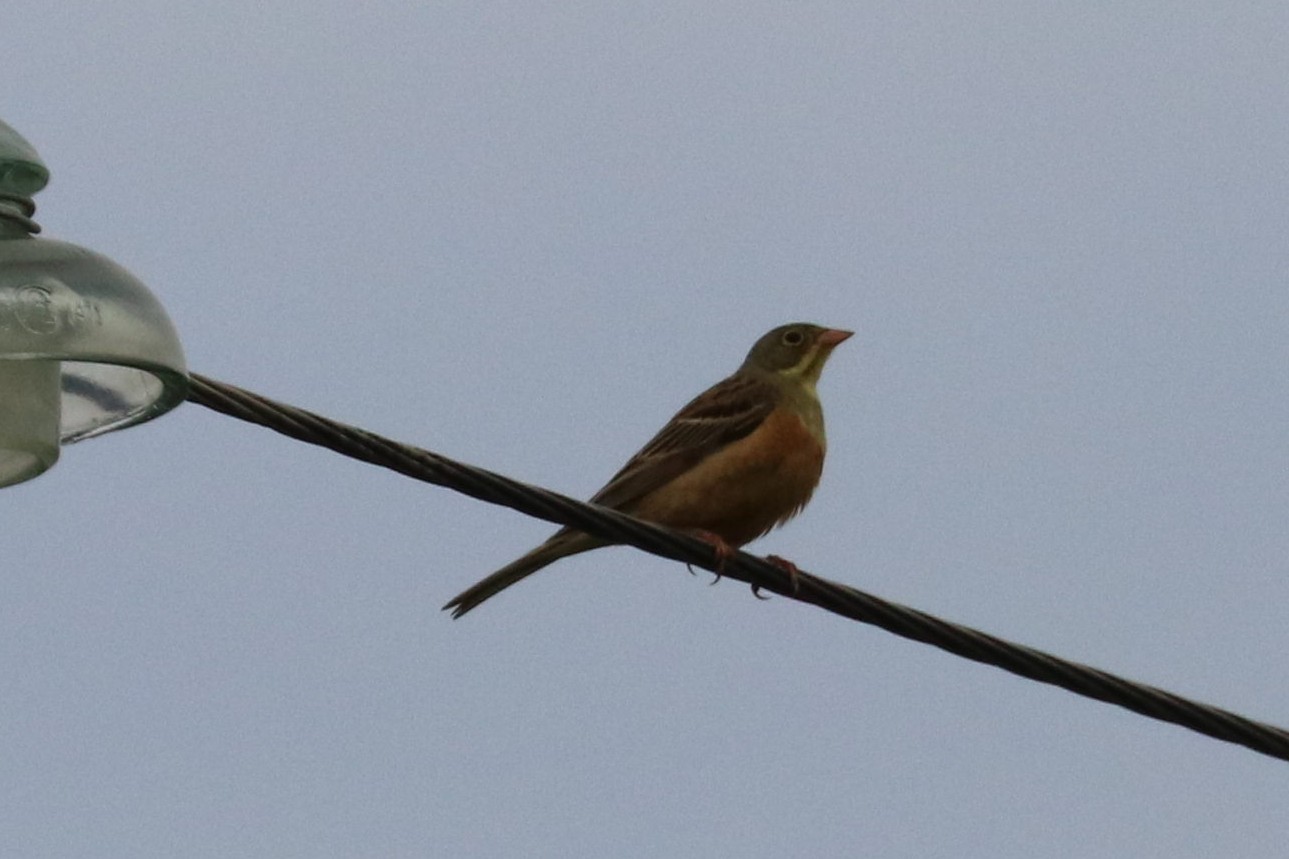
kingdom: Animalia
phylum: Chordata
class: Aves
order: Passeriformes
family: Emberizidae
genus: Emberiza
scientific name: Emberiza hortulana
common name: Ortolan bunting
